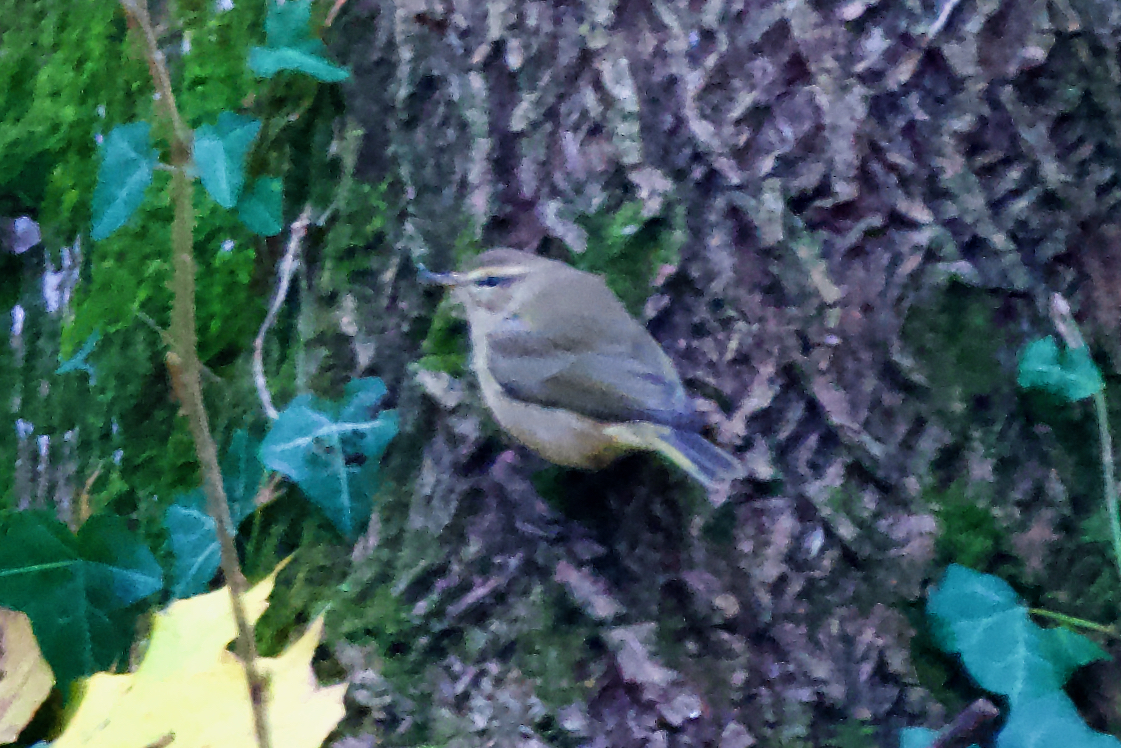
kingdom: Animalia
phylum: Chordata
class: Aves
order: Passeriformes
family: Phylloscopidae
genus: Phylloscopus
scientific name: Phylloscopus collybita
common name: Common chiffchaff
